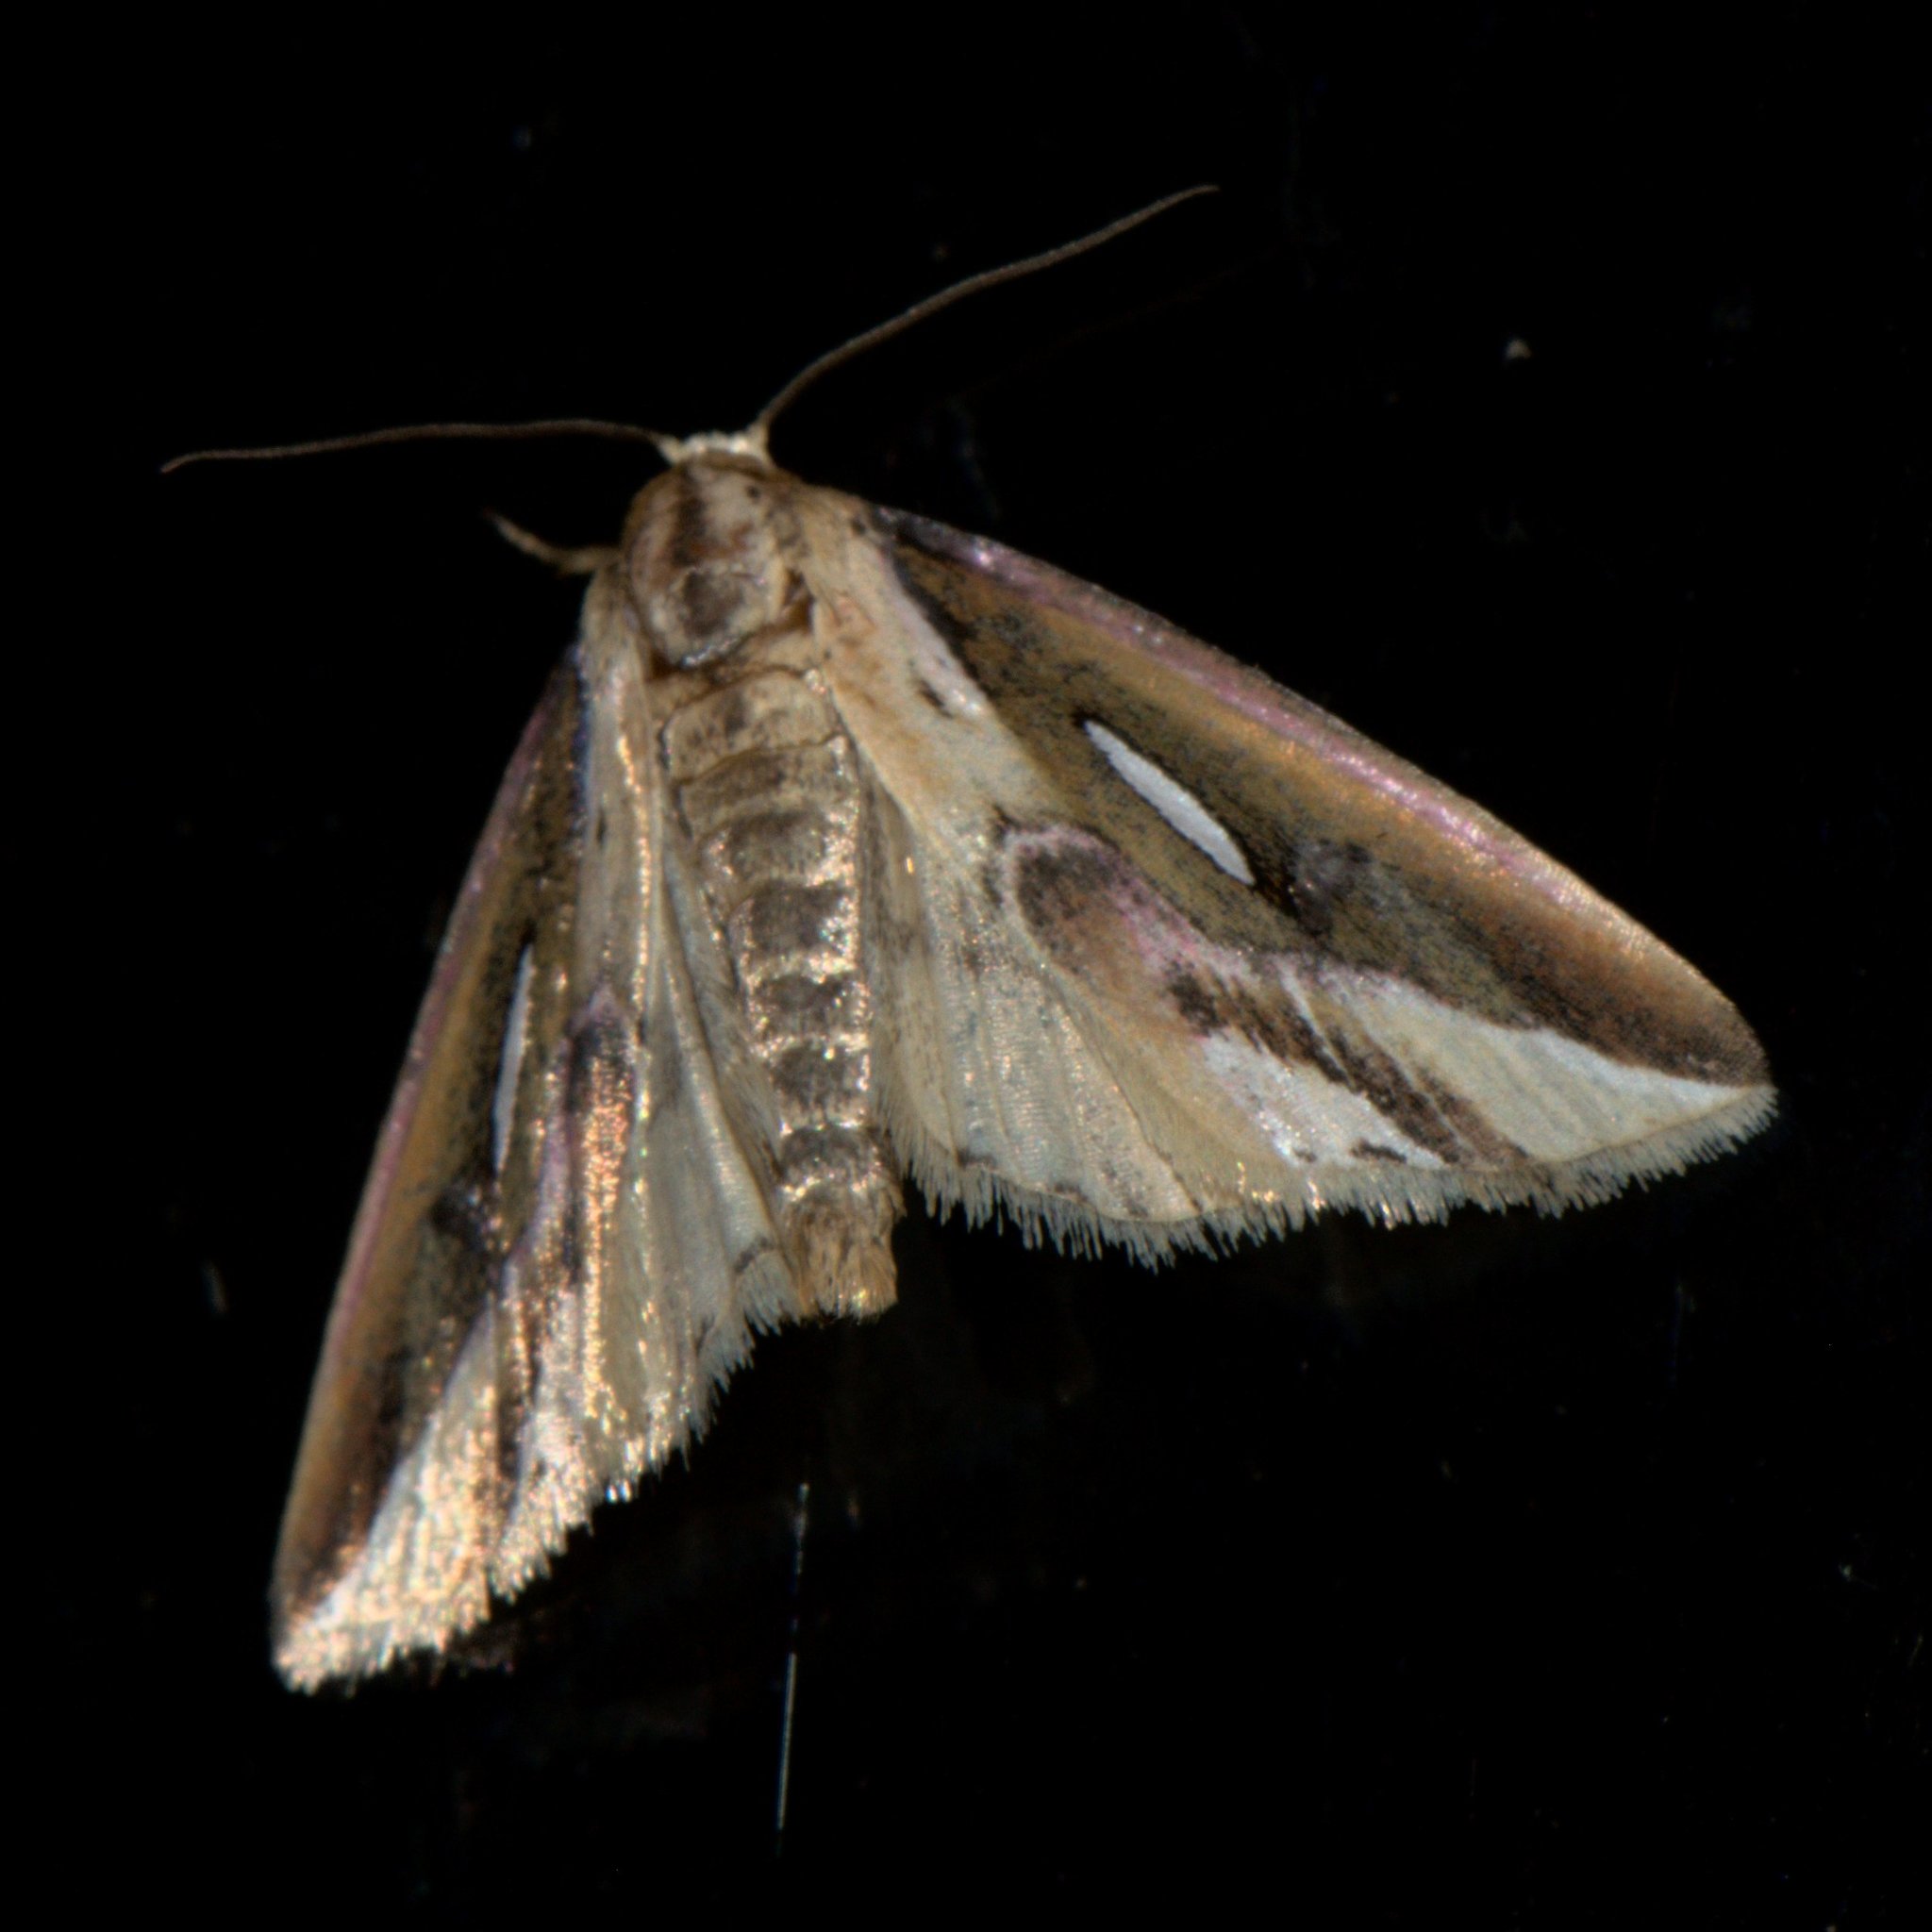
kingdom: Animalia
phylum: Arthropoda
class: Insecta
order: Lepidoptera
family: Noctuidae
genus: Micardia
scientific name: Micardia pulcherrima
